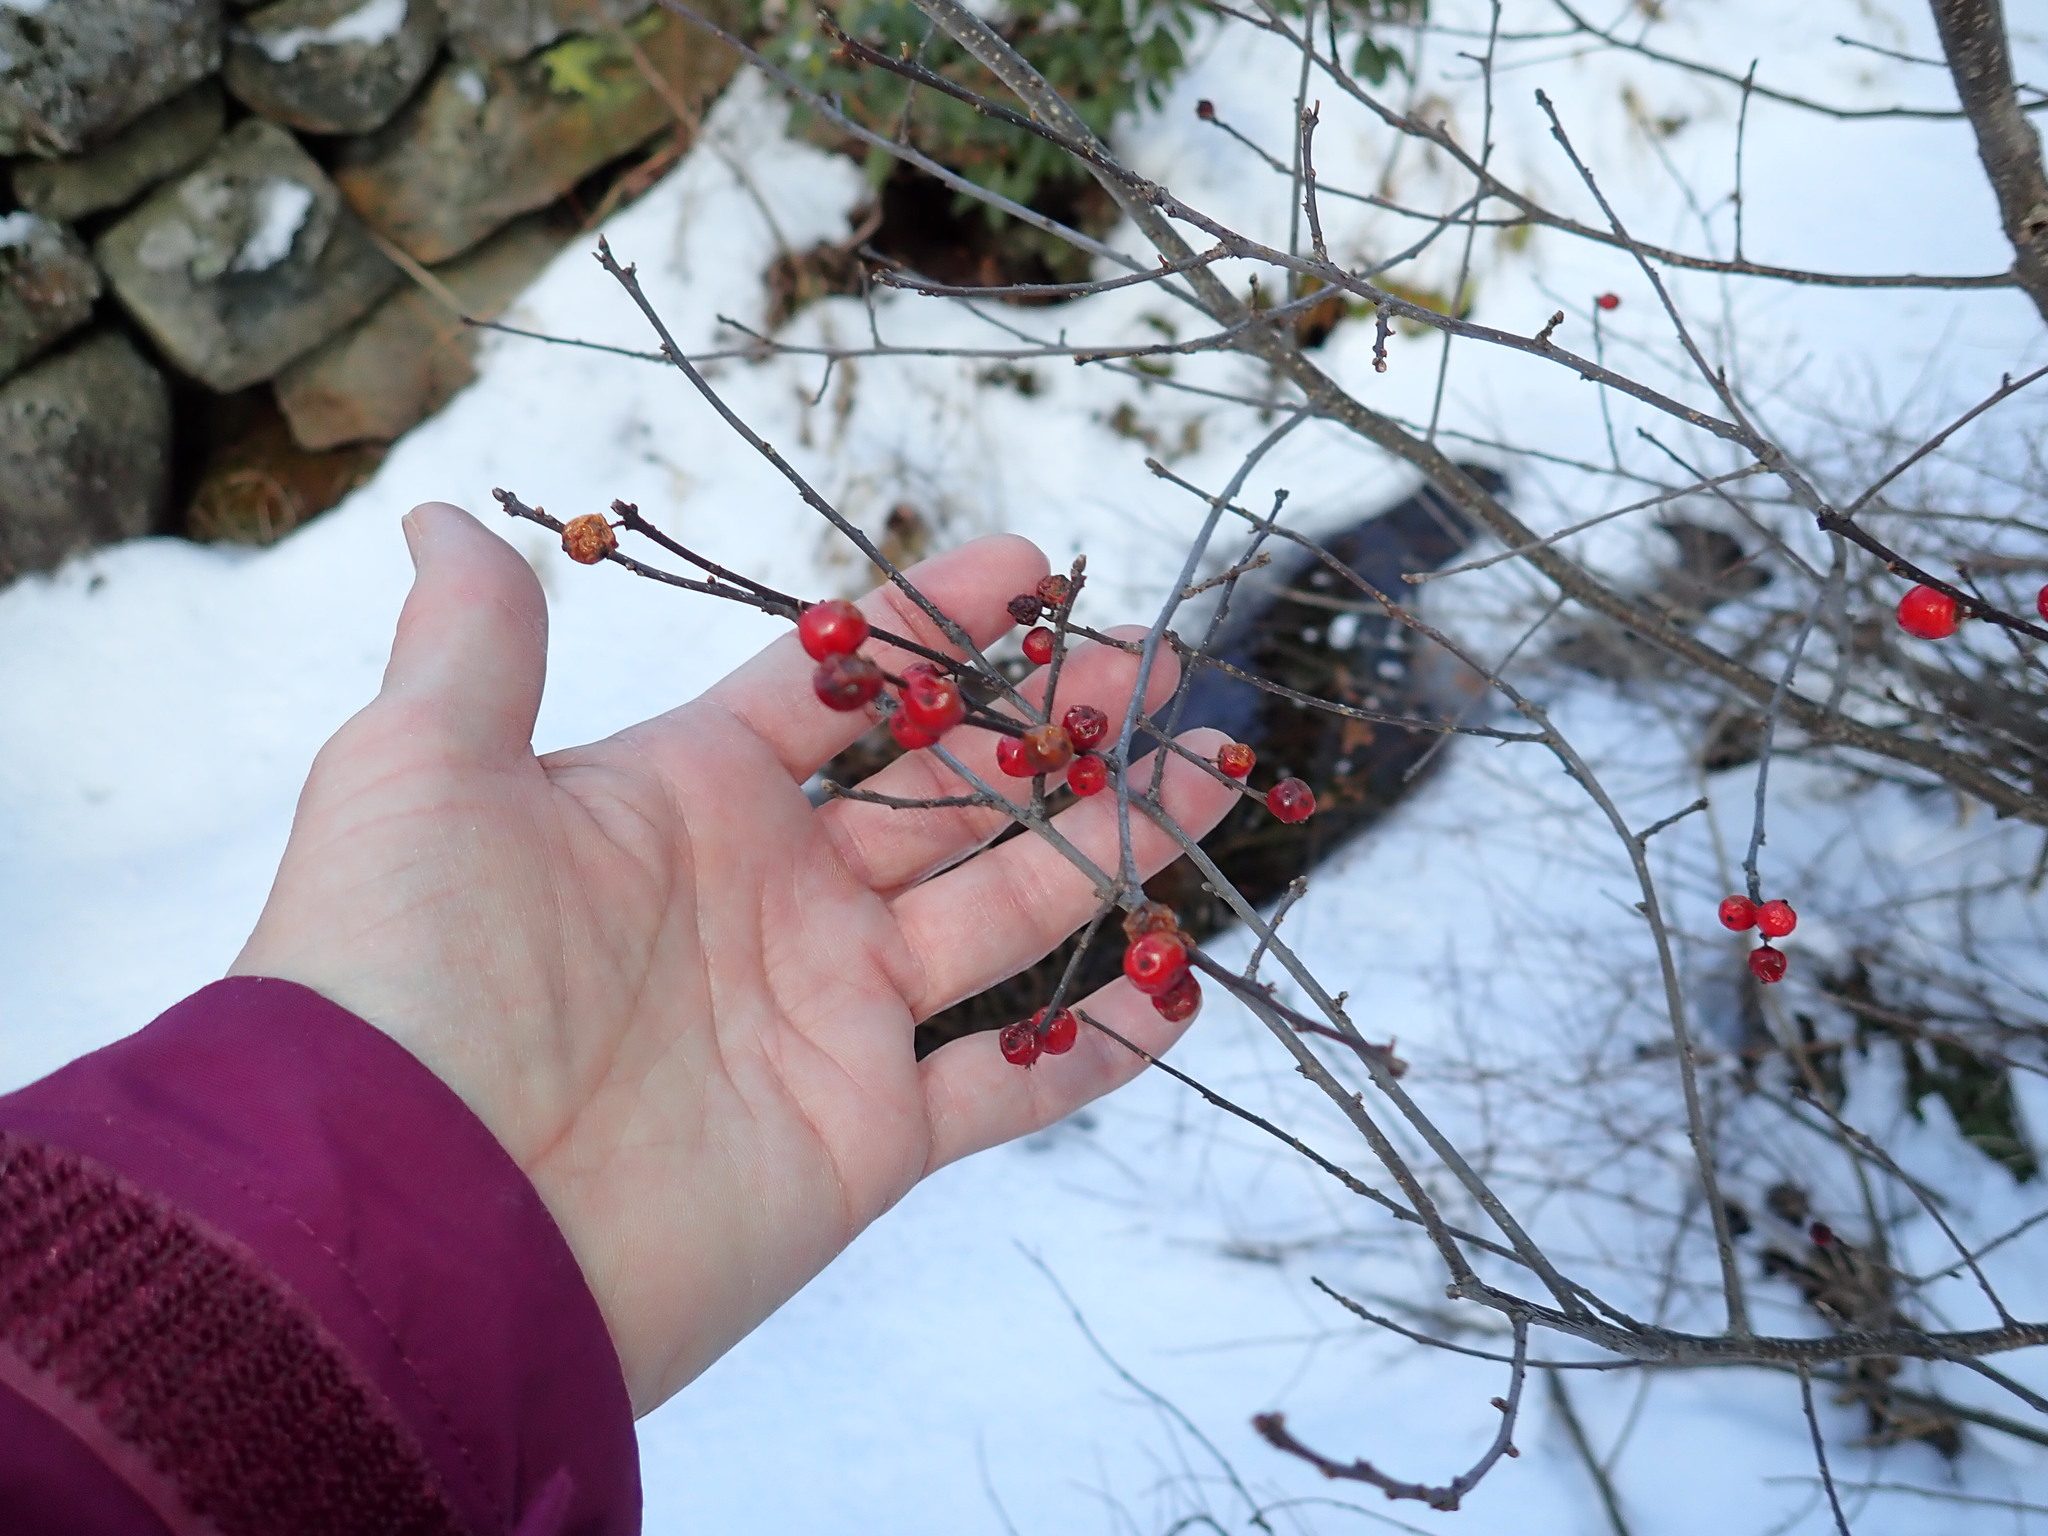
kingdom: Plantae
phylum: Tracheophyta
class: Magnoliopsida
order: Aquifoliales
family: Aquifoliaceae
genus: Ilex
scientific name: Ilex verticillata
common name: Virginia winterberry
